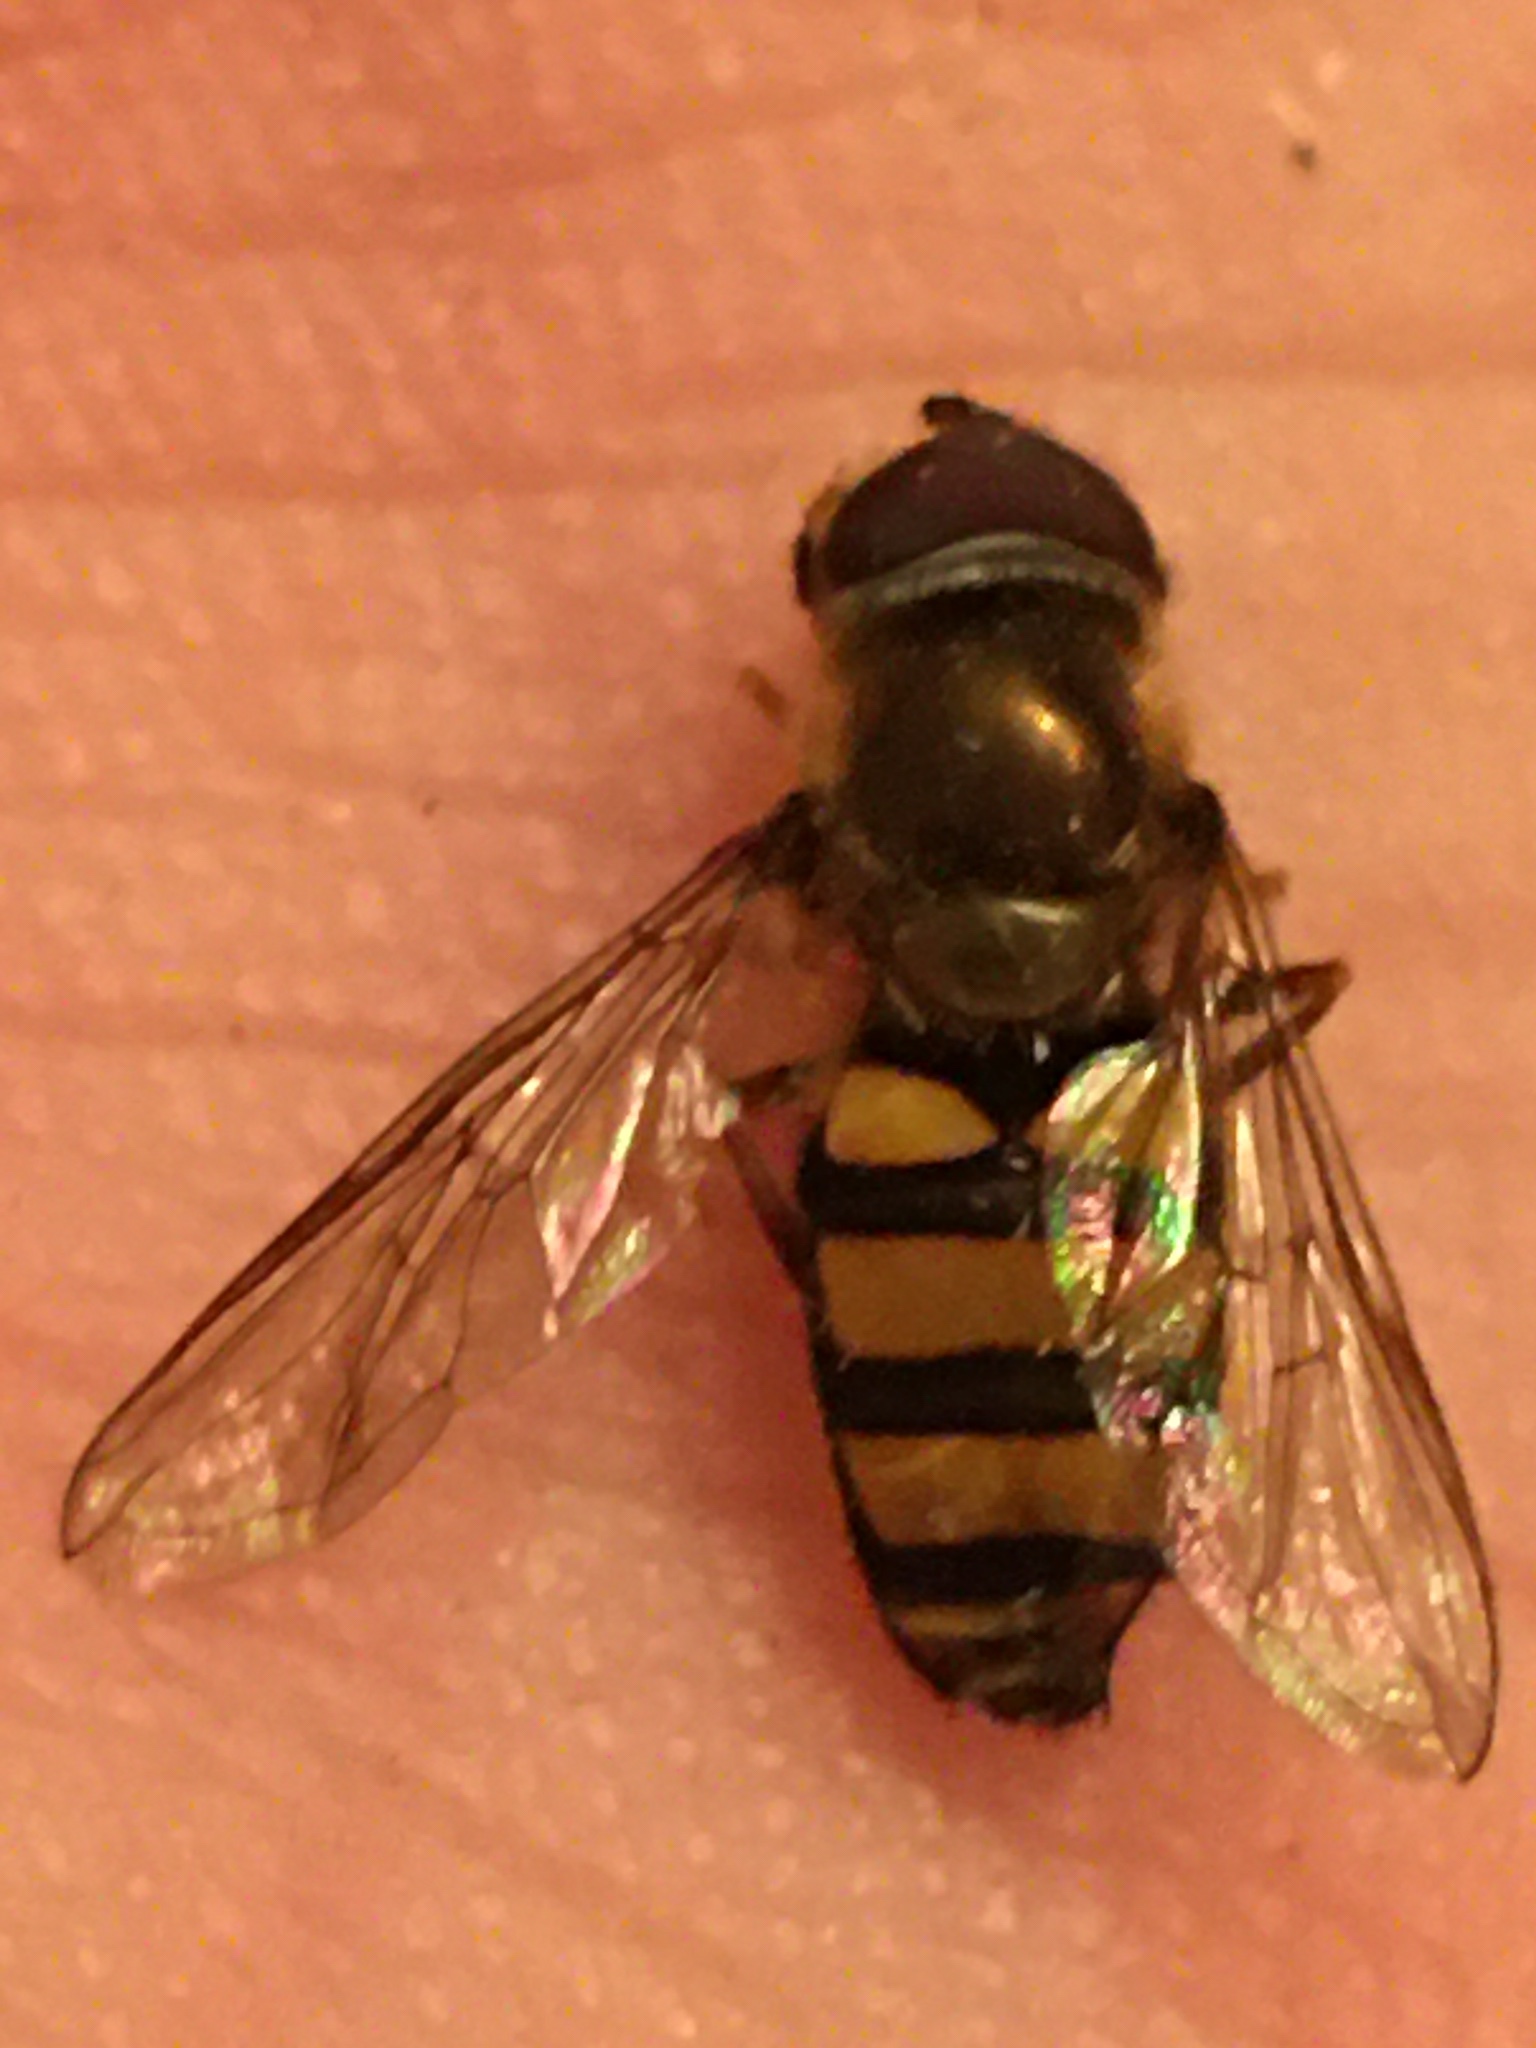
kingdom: Animalia
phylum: Arthropoda
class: Insecta
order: Diptera
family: Syrphidae
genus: Eupeodes
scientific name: Eupeodes
